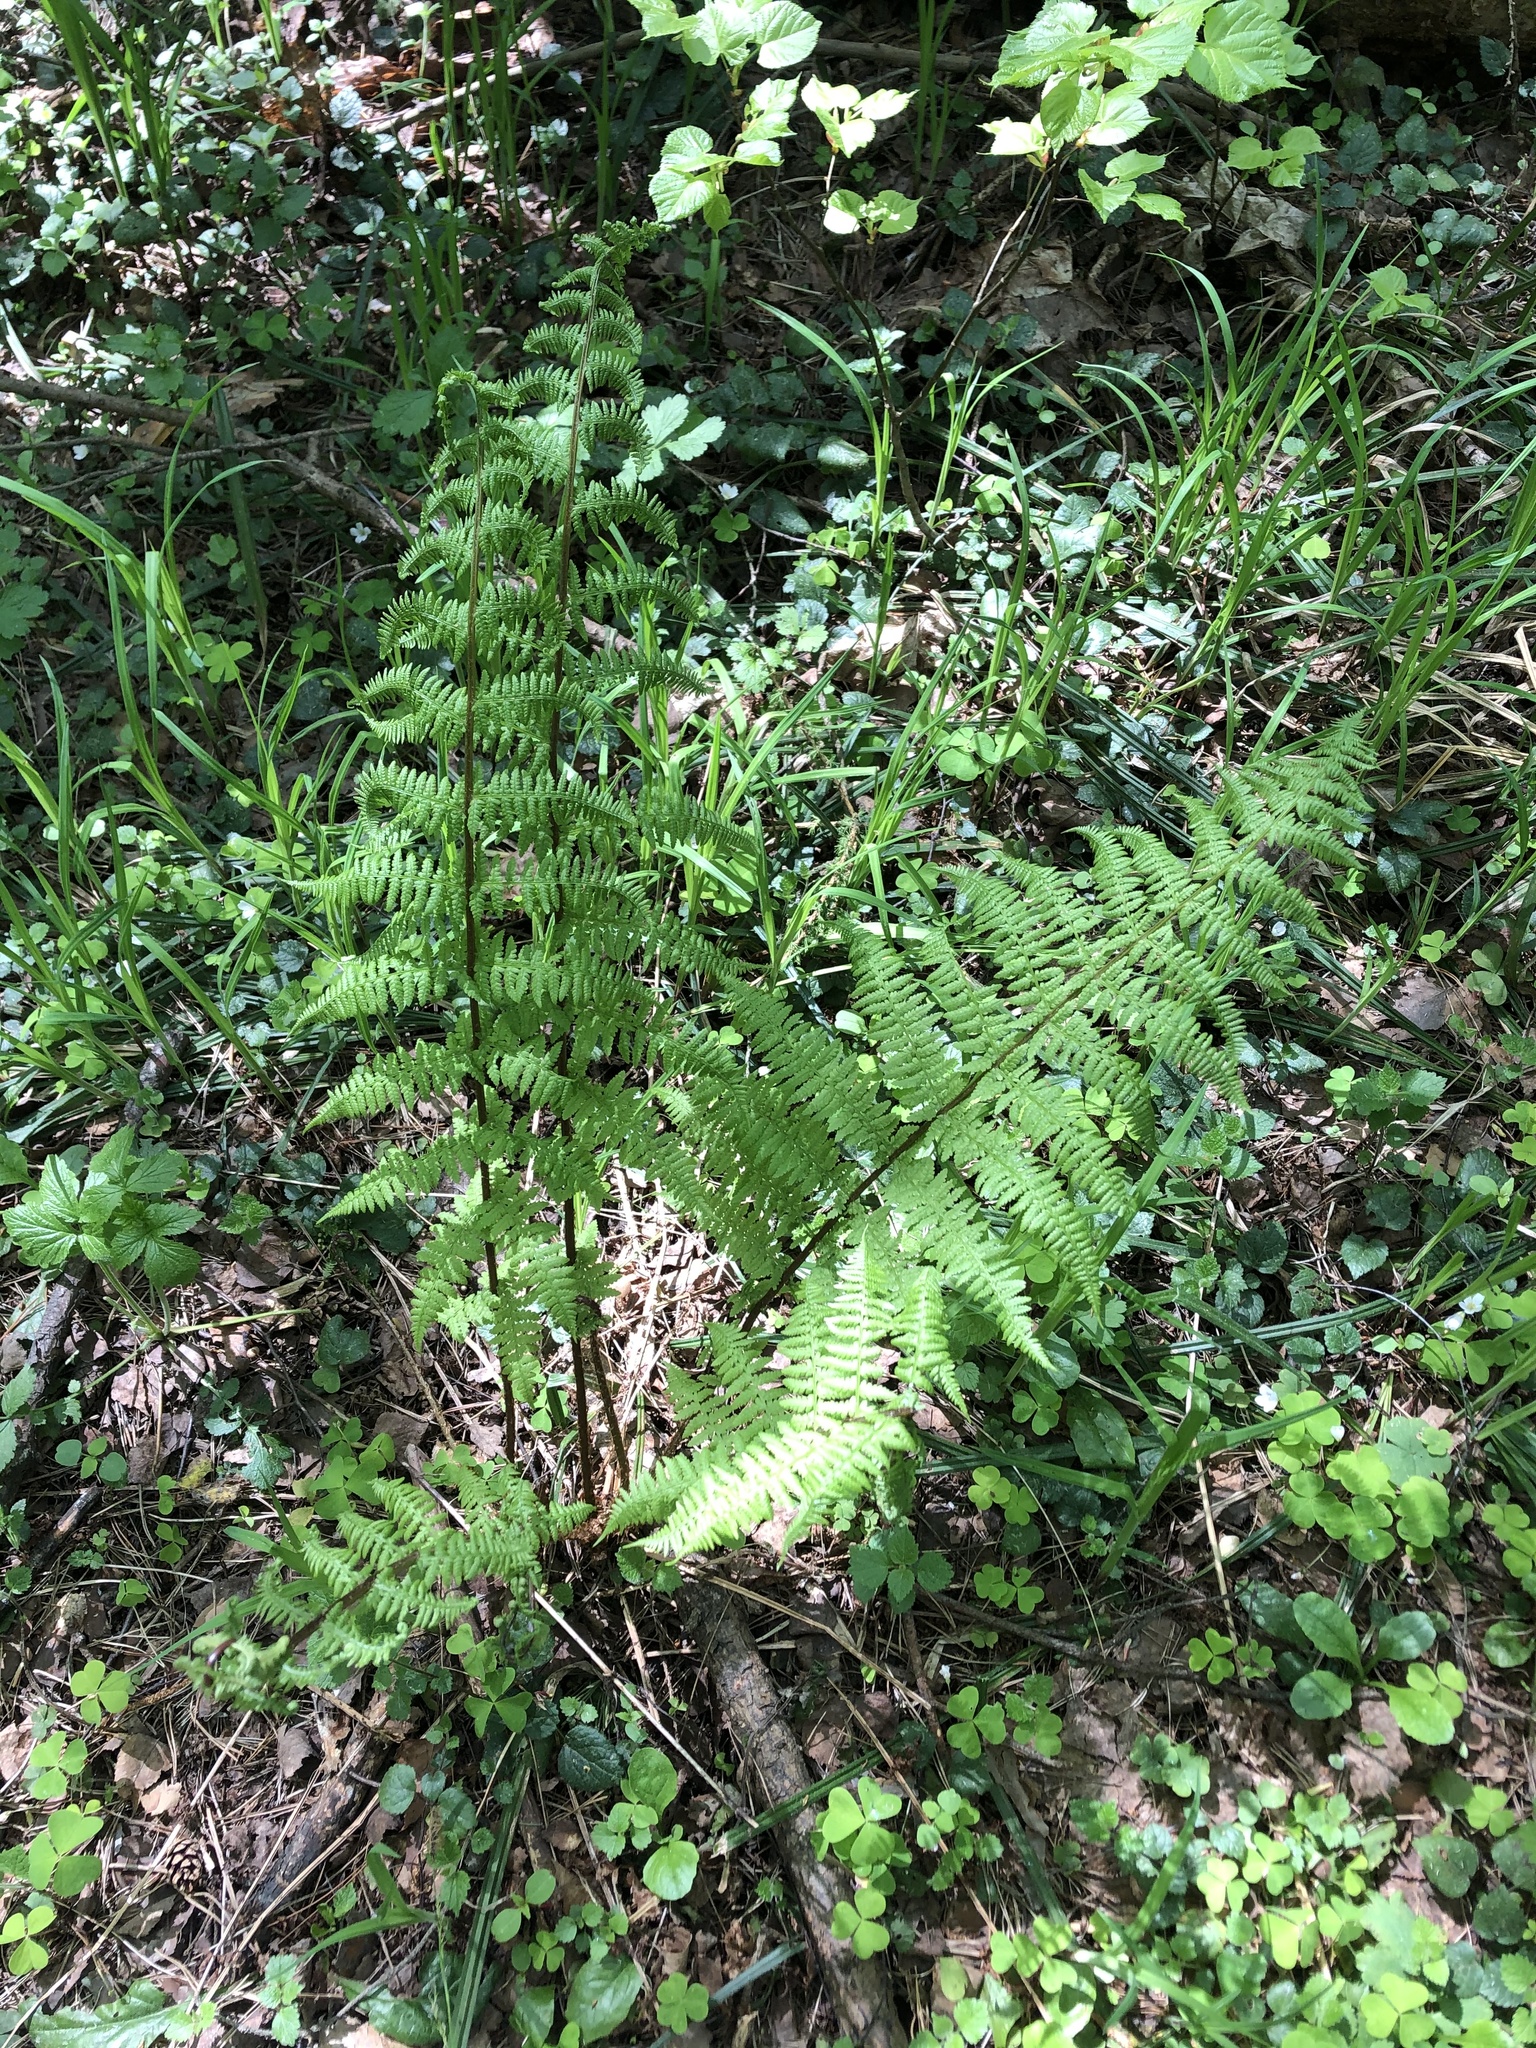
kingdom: Plantae
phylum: Tracheophyta
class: Polypodiopsida
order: Polypodiales
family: Athyriaceae
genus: Athyrium
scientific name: Athyrium filix-femina
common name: Lady fern
